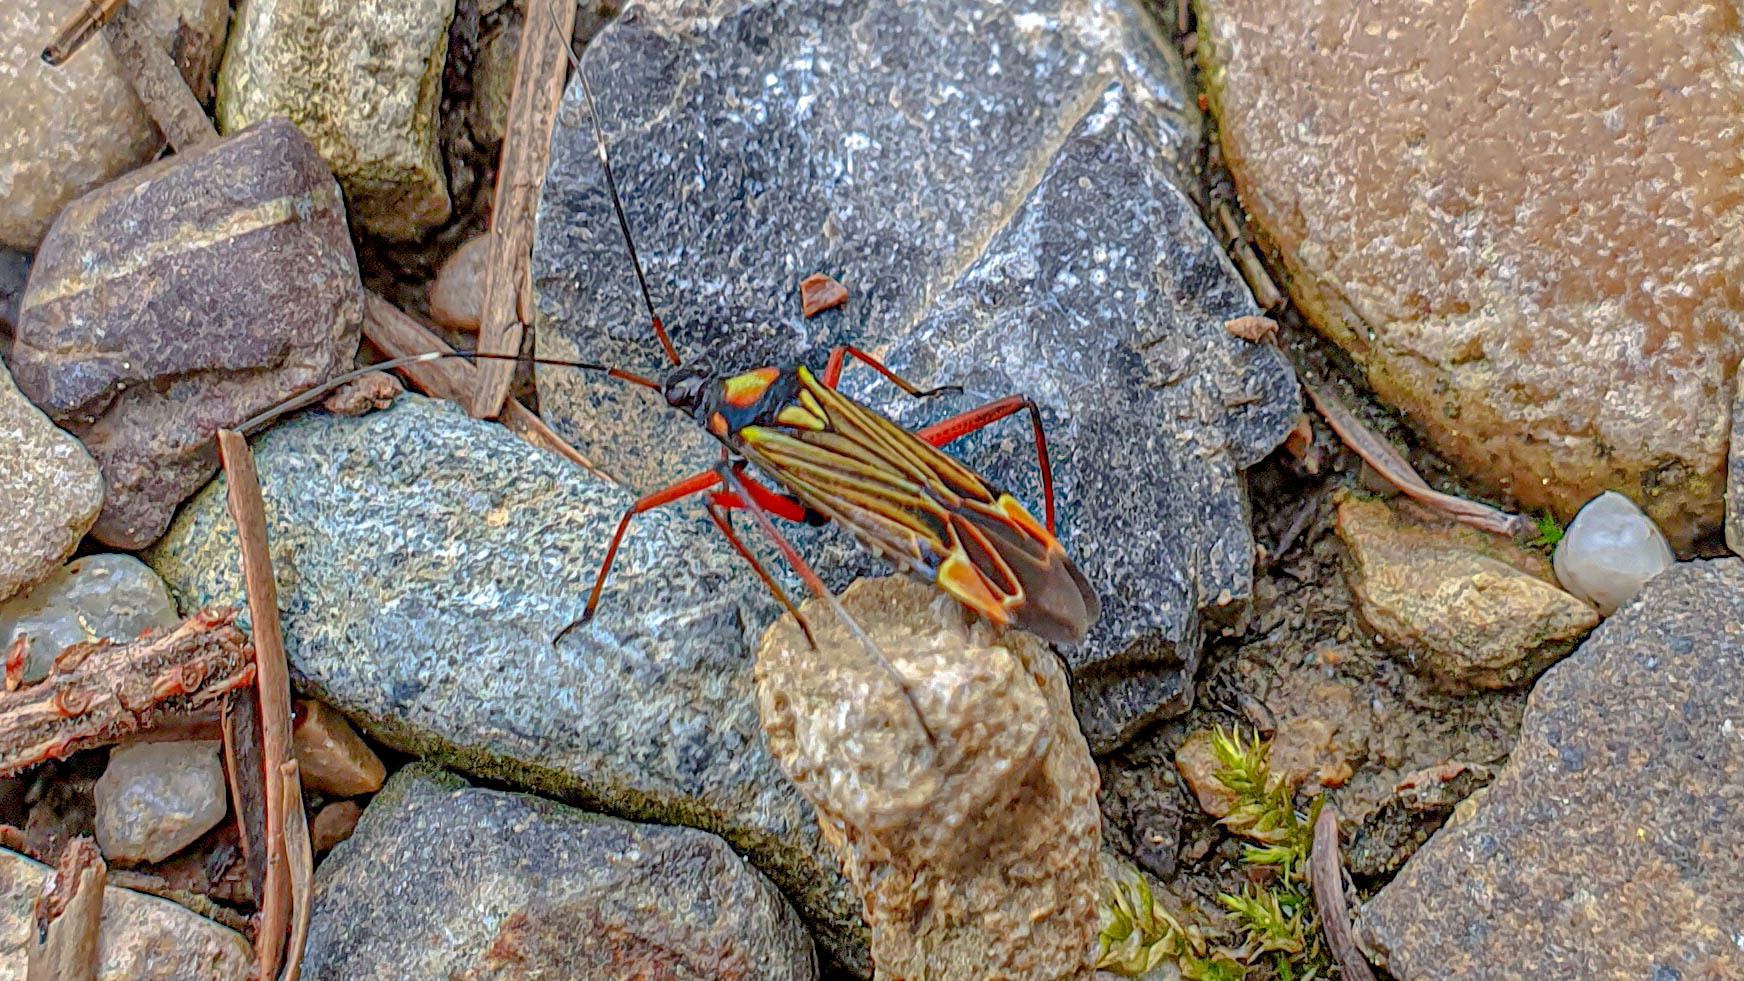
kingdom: Animalia
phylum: Arthropoda
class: Insecta
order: Hemiptera
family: Miridae
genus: Miris
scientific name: Miris striatus
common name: Fine streaked bugkin
